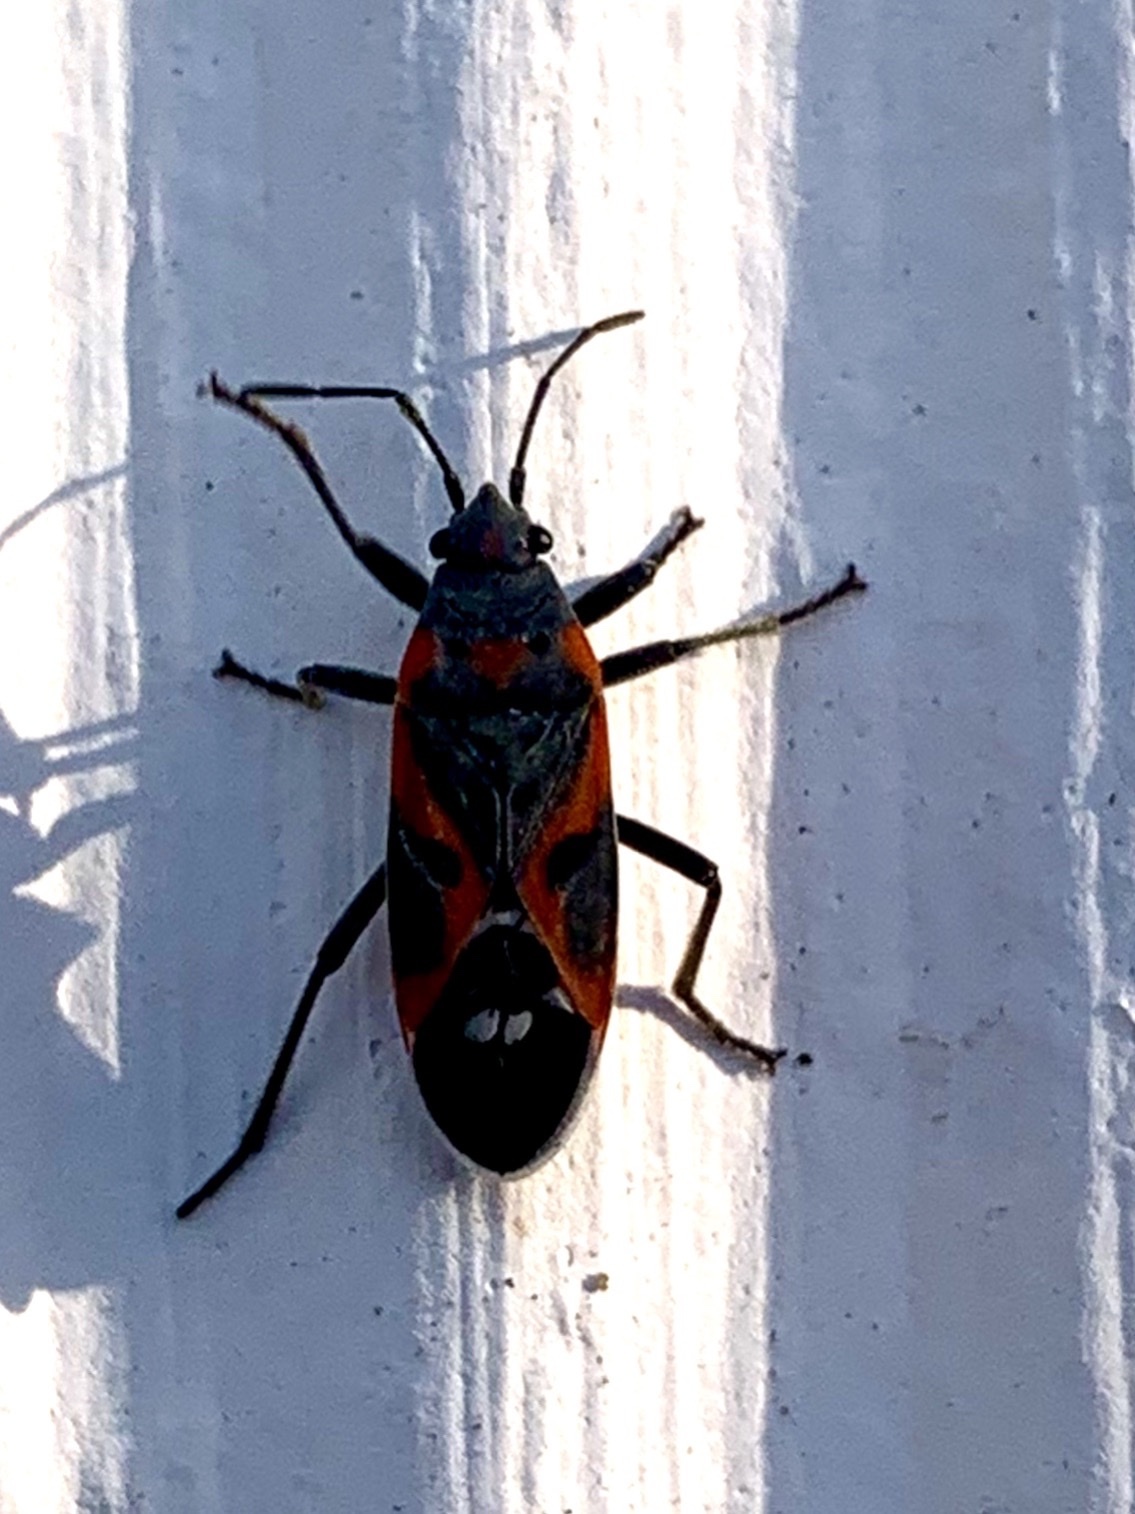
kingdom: Animalia
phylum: Arthropoda
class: Insecta
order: Hemiptera
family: Lygaeidae
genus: Lygaeus
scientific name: Lygaeus kalmii
